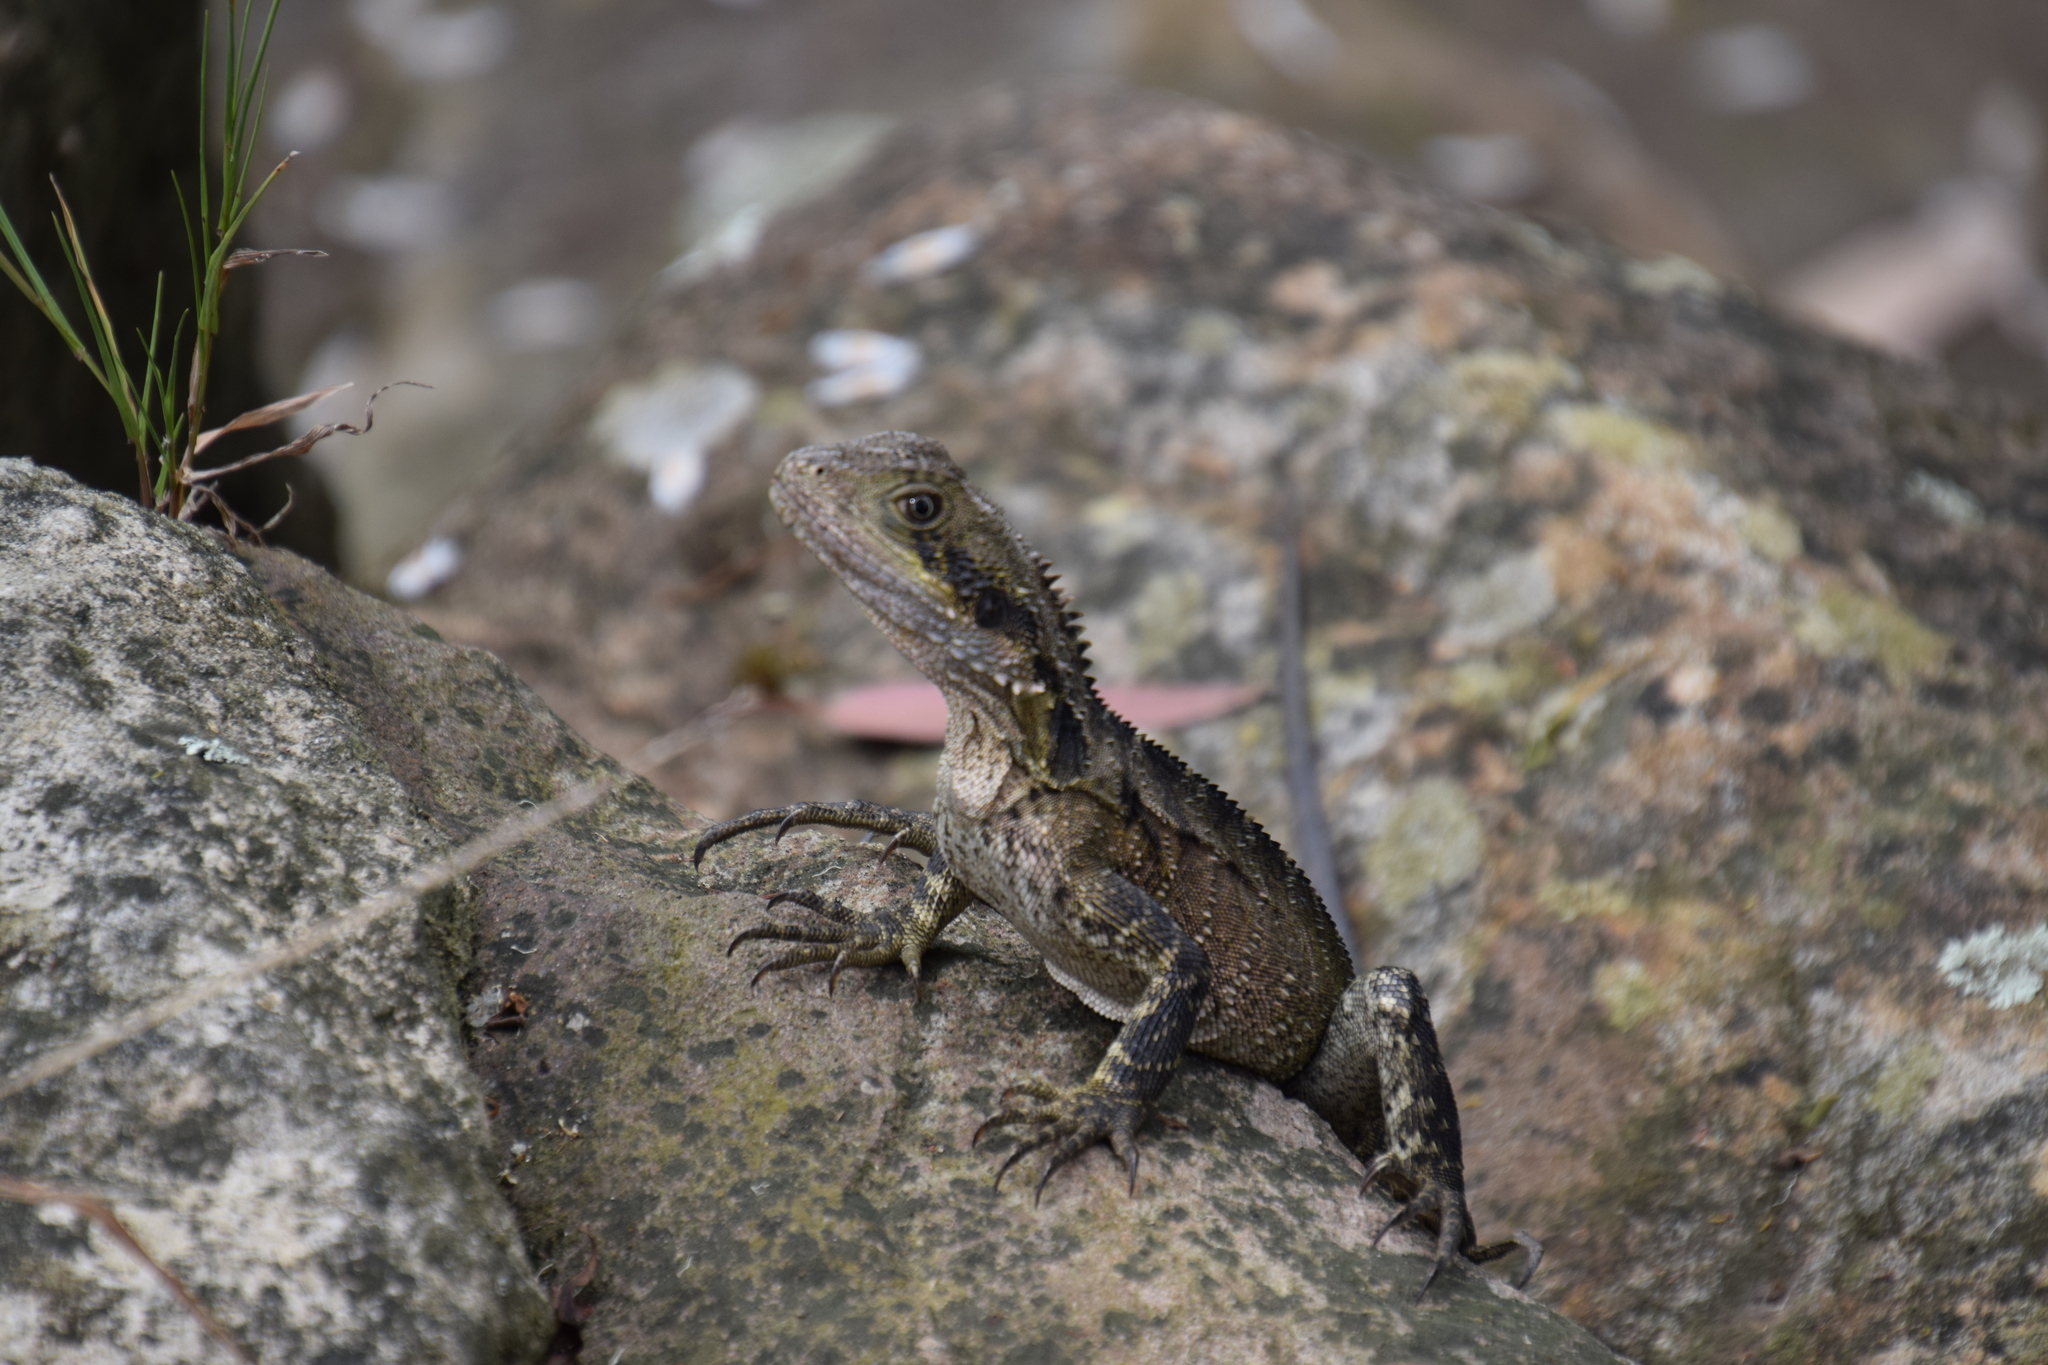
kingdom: Animalia
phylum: Chordata
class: Squamata
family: Agamidae
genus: Intellagama
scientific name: Intellagama lesueurii
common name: Eastern water dragon
